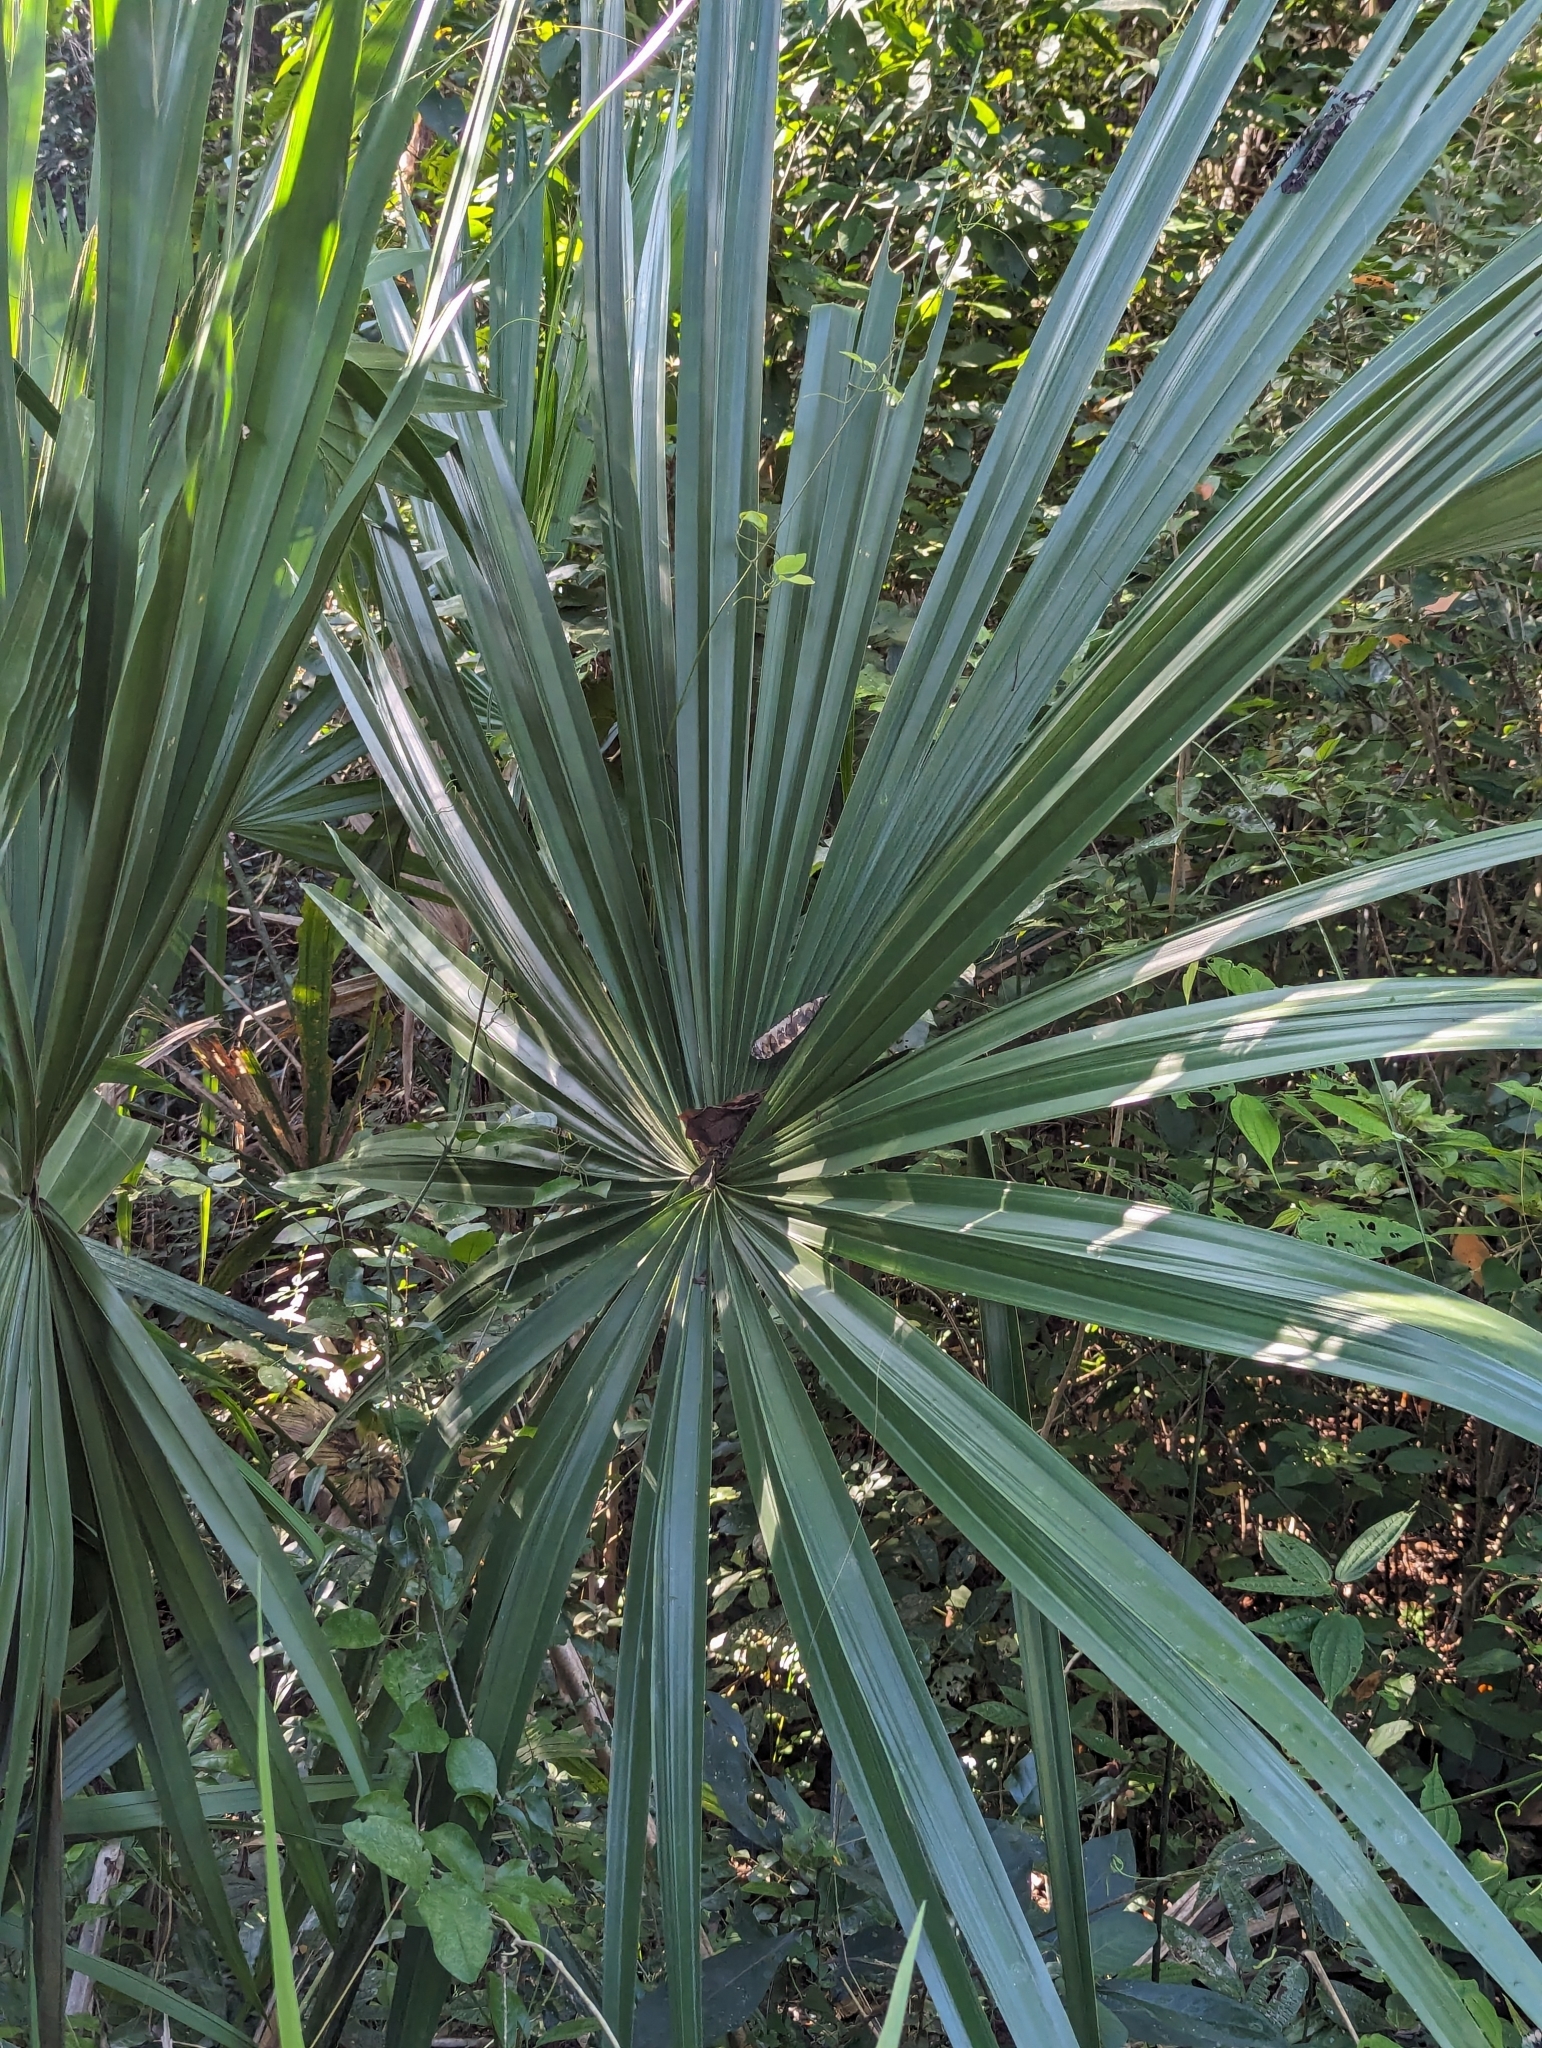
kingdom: Plantae
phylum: Tracheophyta
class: Liliopsida
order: Arecales
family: Arecaceae
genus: Sabal
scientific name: Sabal yapa
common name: Thatch palm
